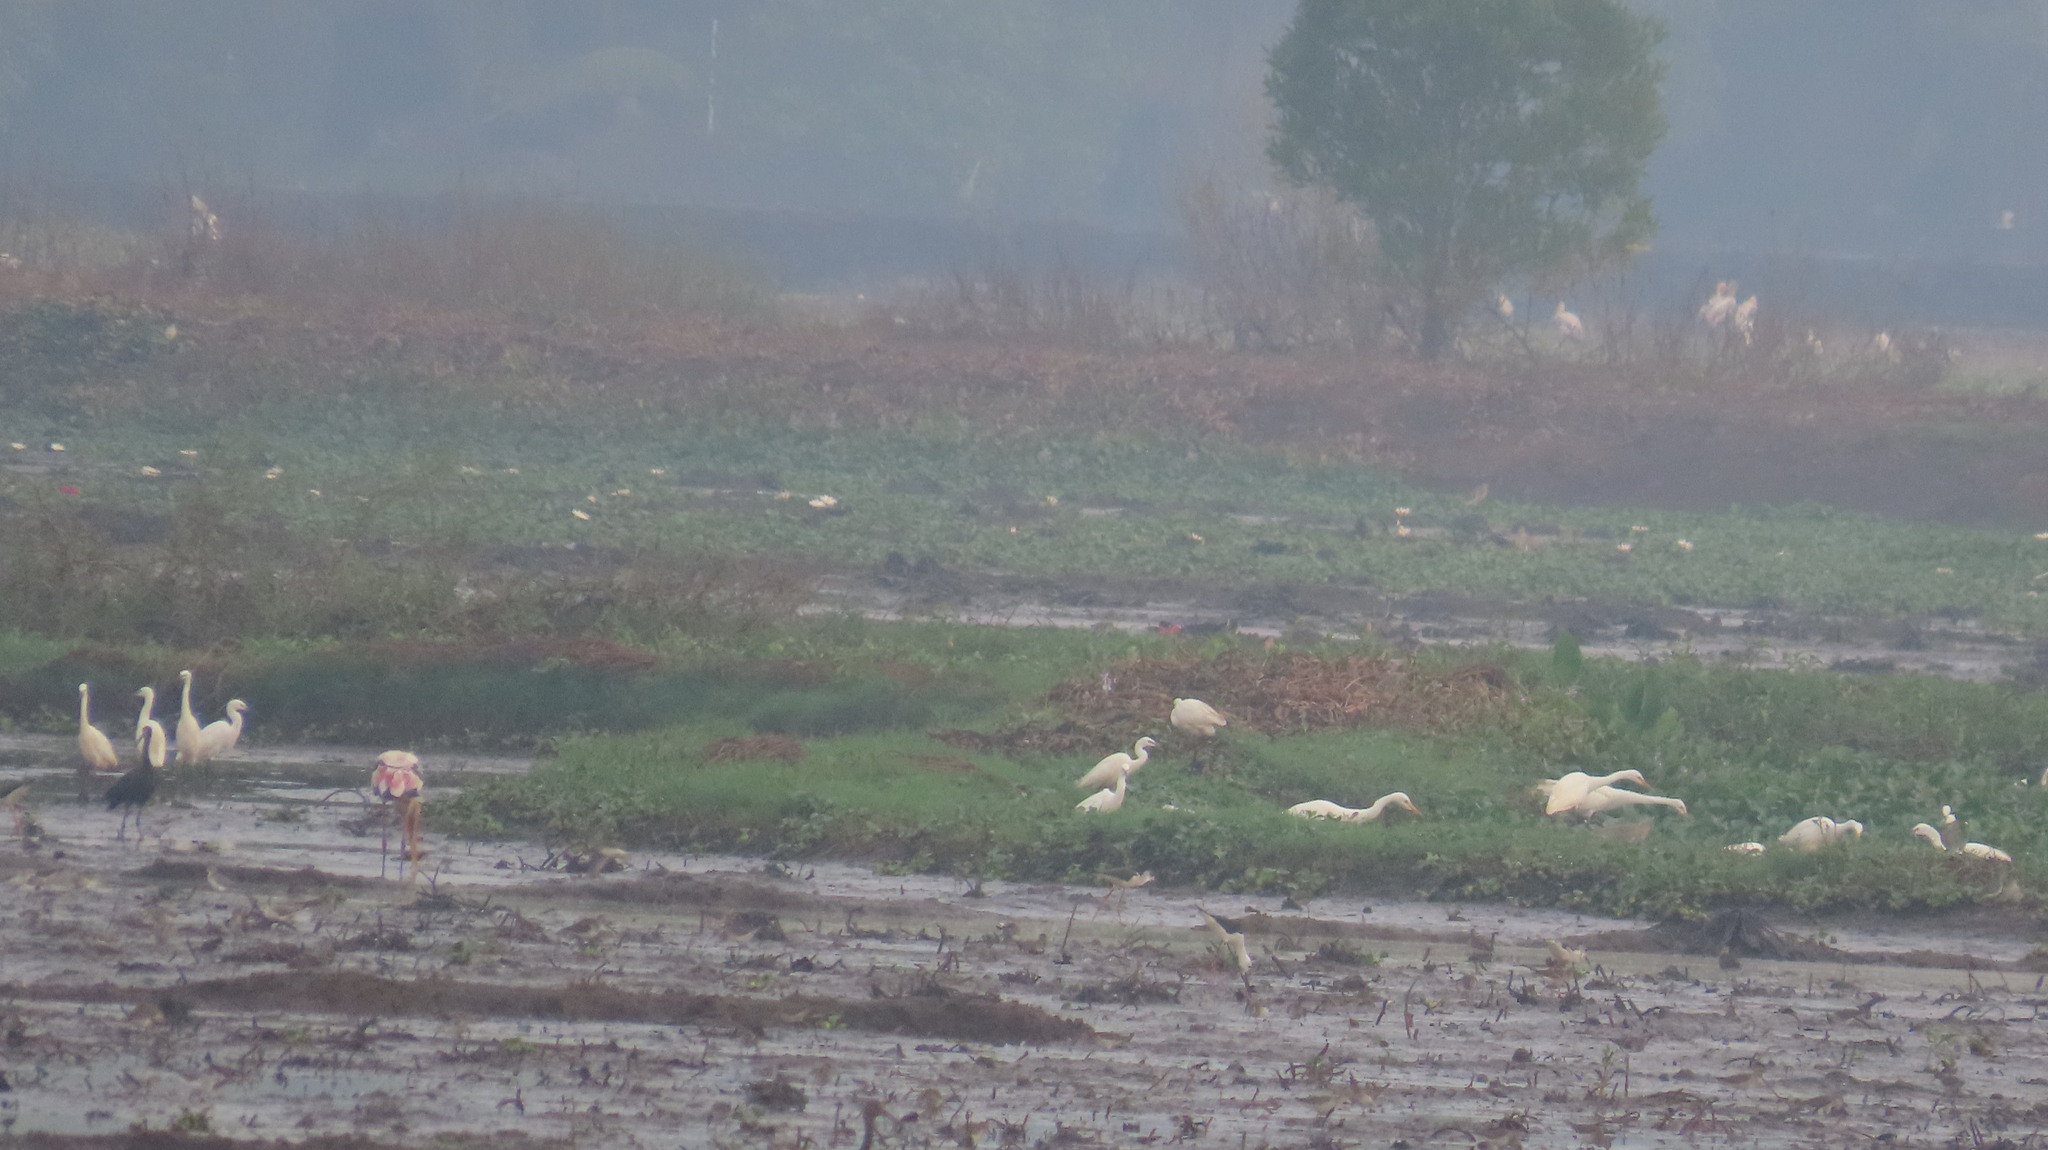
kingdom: Animalia
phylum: Chordata
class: Aves
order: Ciconiiformes
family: Ciconiidae
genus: Mycteria
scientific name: Mycteria leucocephala
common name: Painted stork
